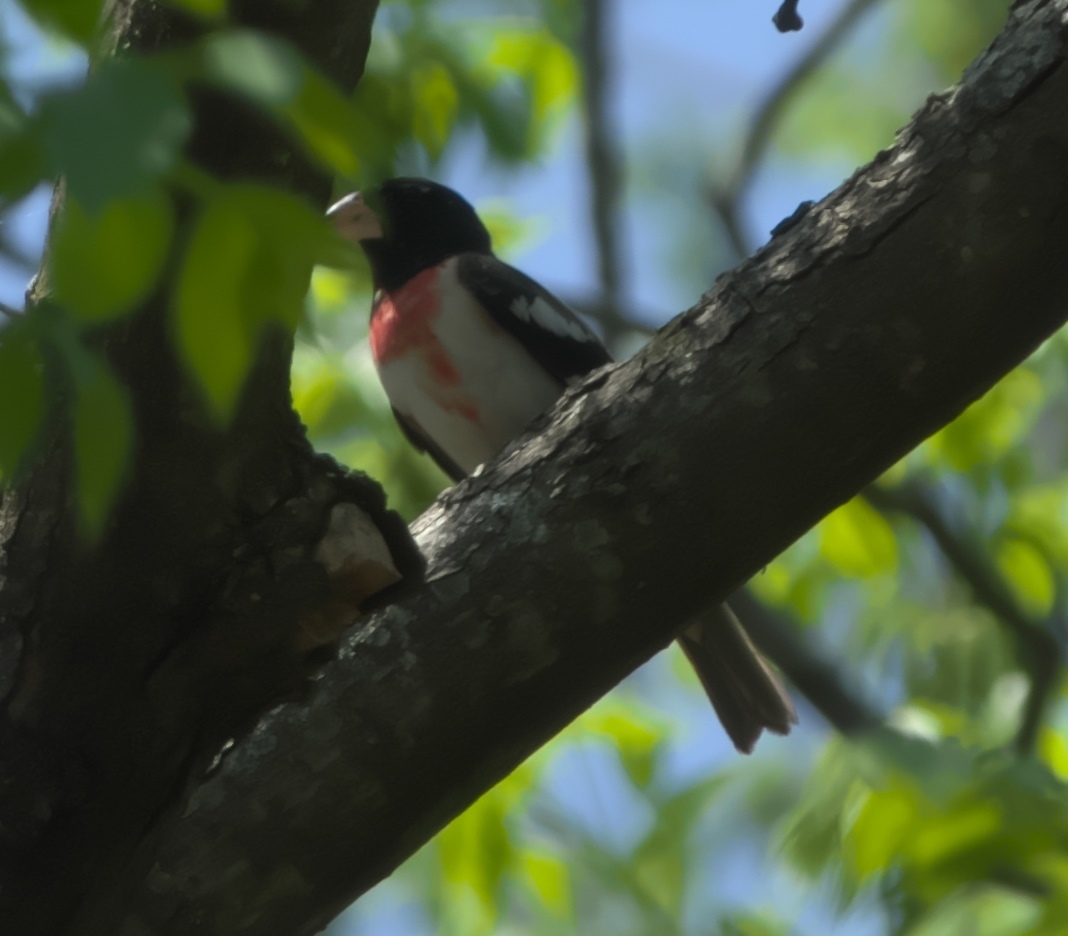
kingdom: Animalia
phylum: Chordata
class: Aves
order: Passeriformes
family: Cardinalidae
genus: Pheucticus
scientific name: Pheucticus ludovicianus
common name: Rose-breasted grosbeak
